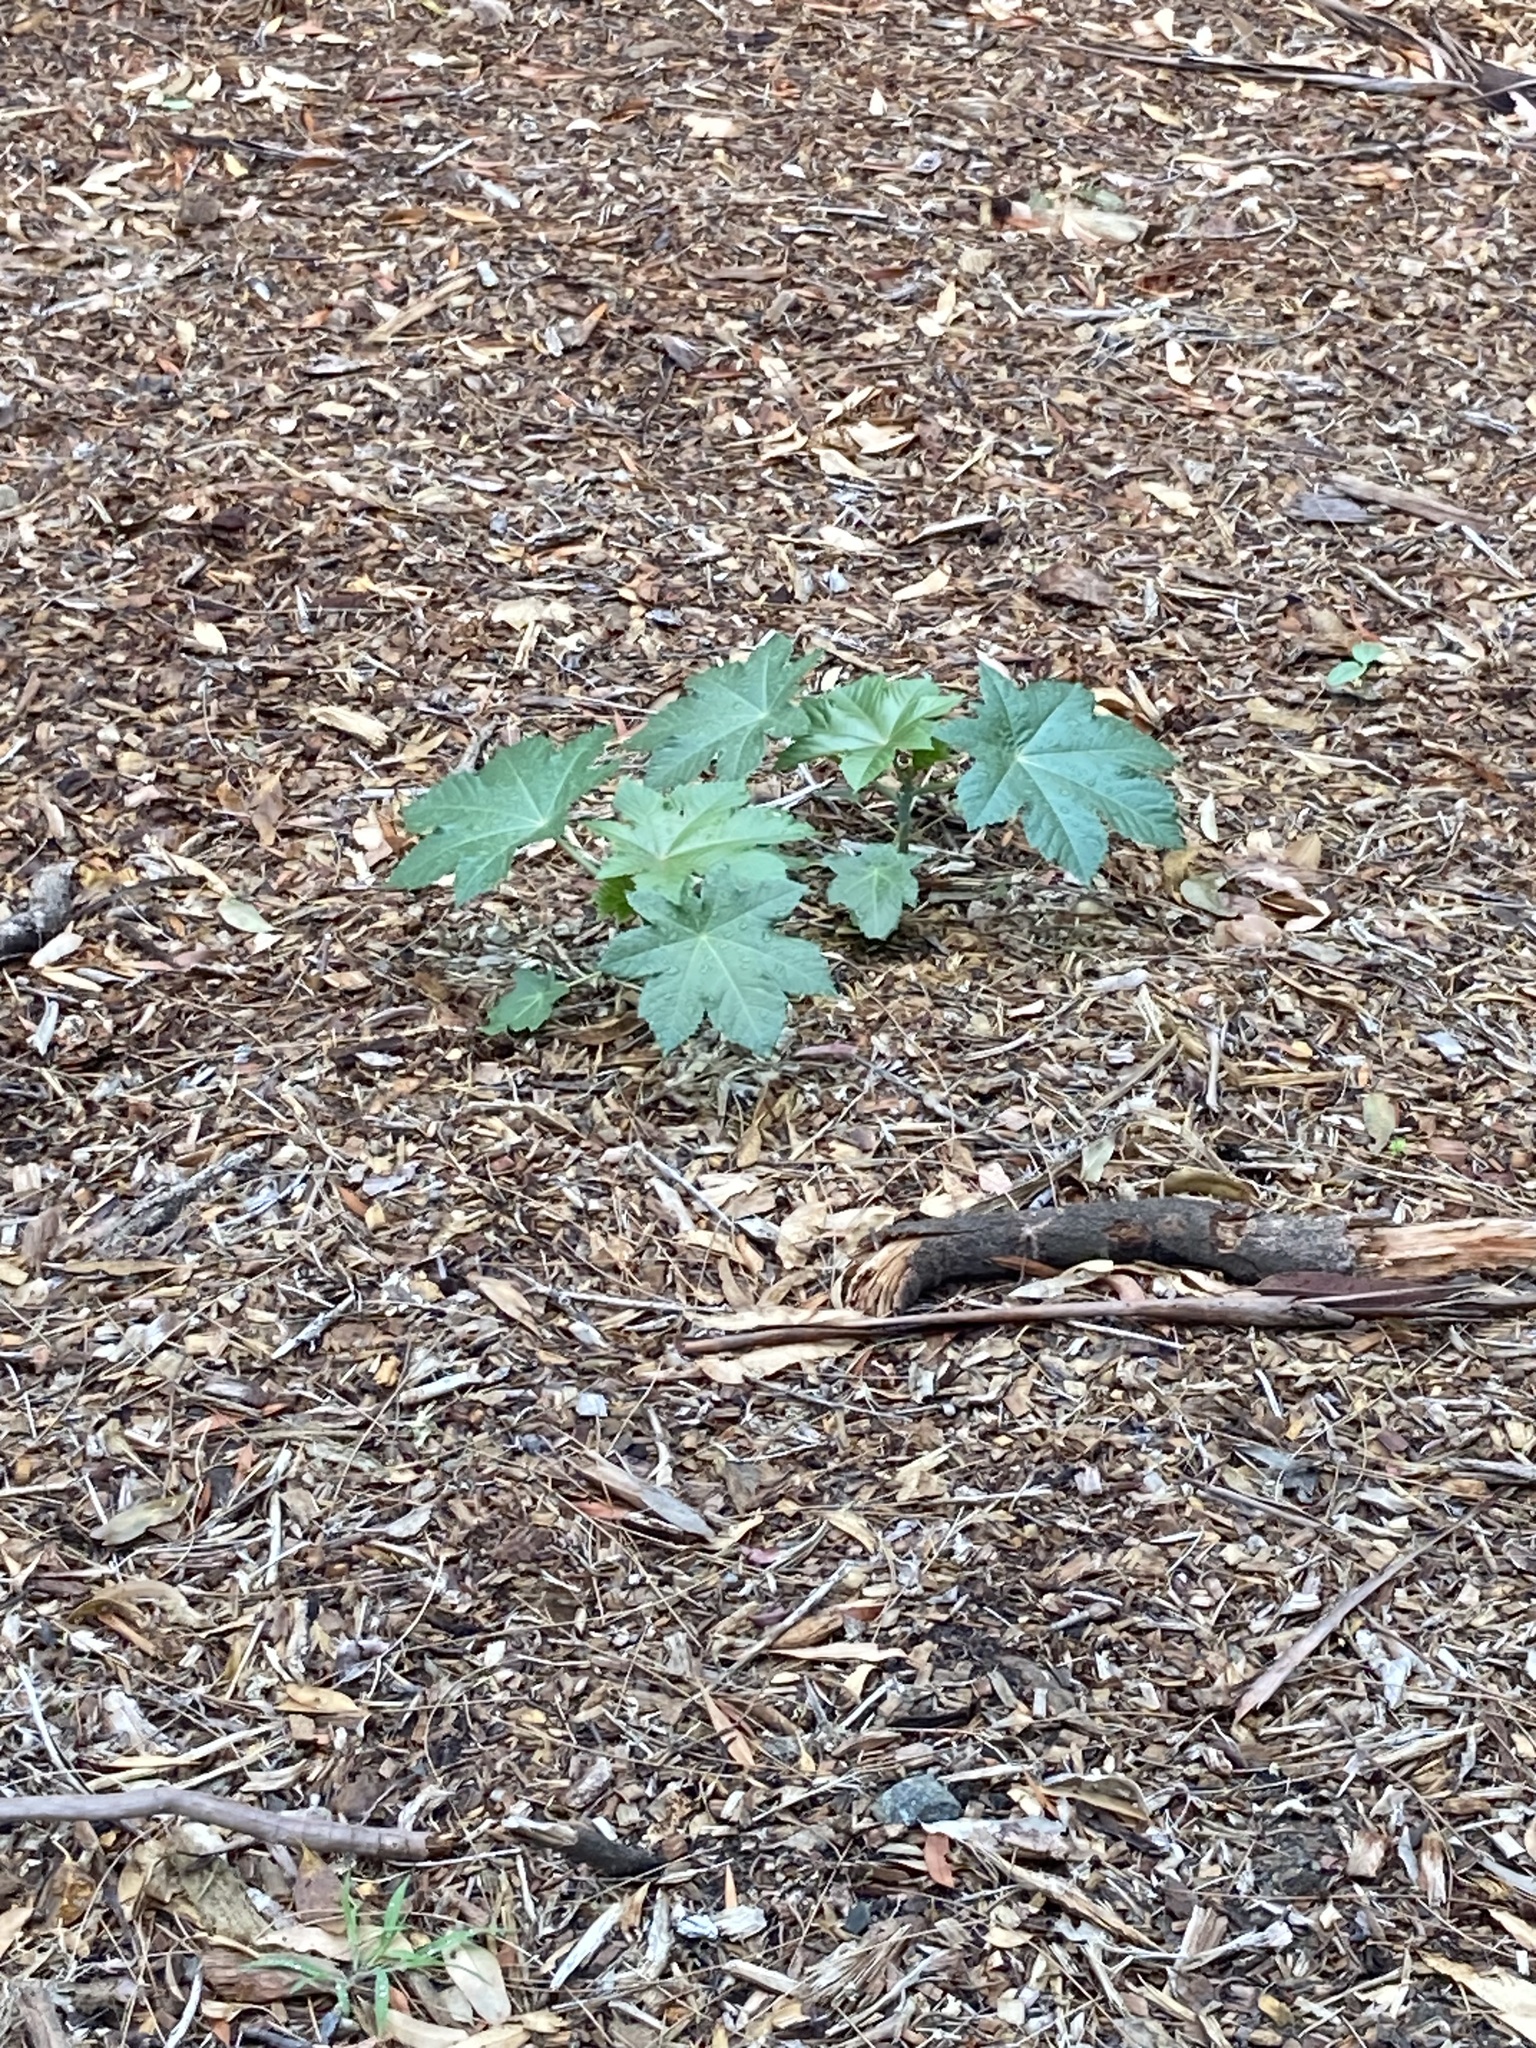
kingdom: Plantae
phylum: Tracheophyta
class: Magnoliopsida
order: Malpighiales
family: Euphorbiaceae
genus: Ricinus
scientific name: Ricinus communis
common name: Castor-oil-plant
